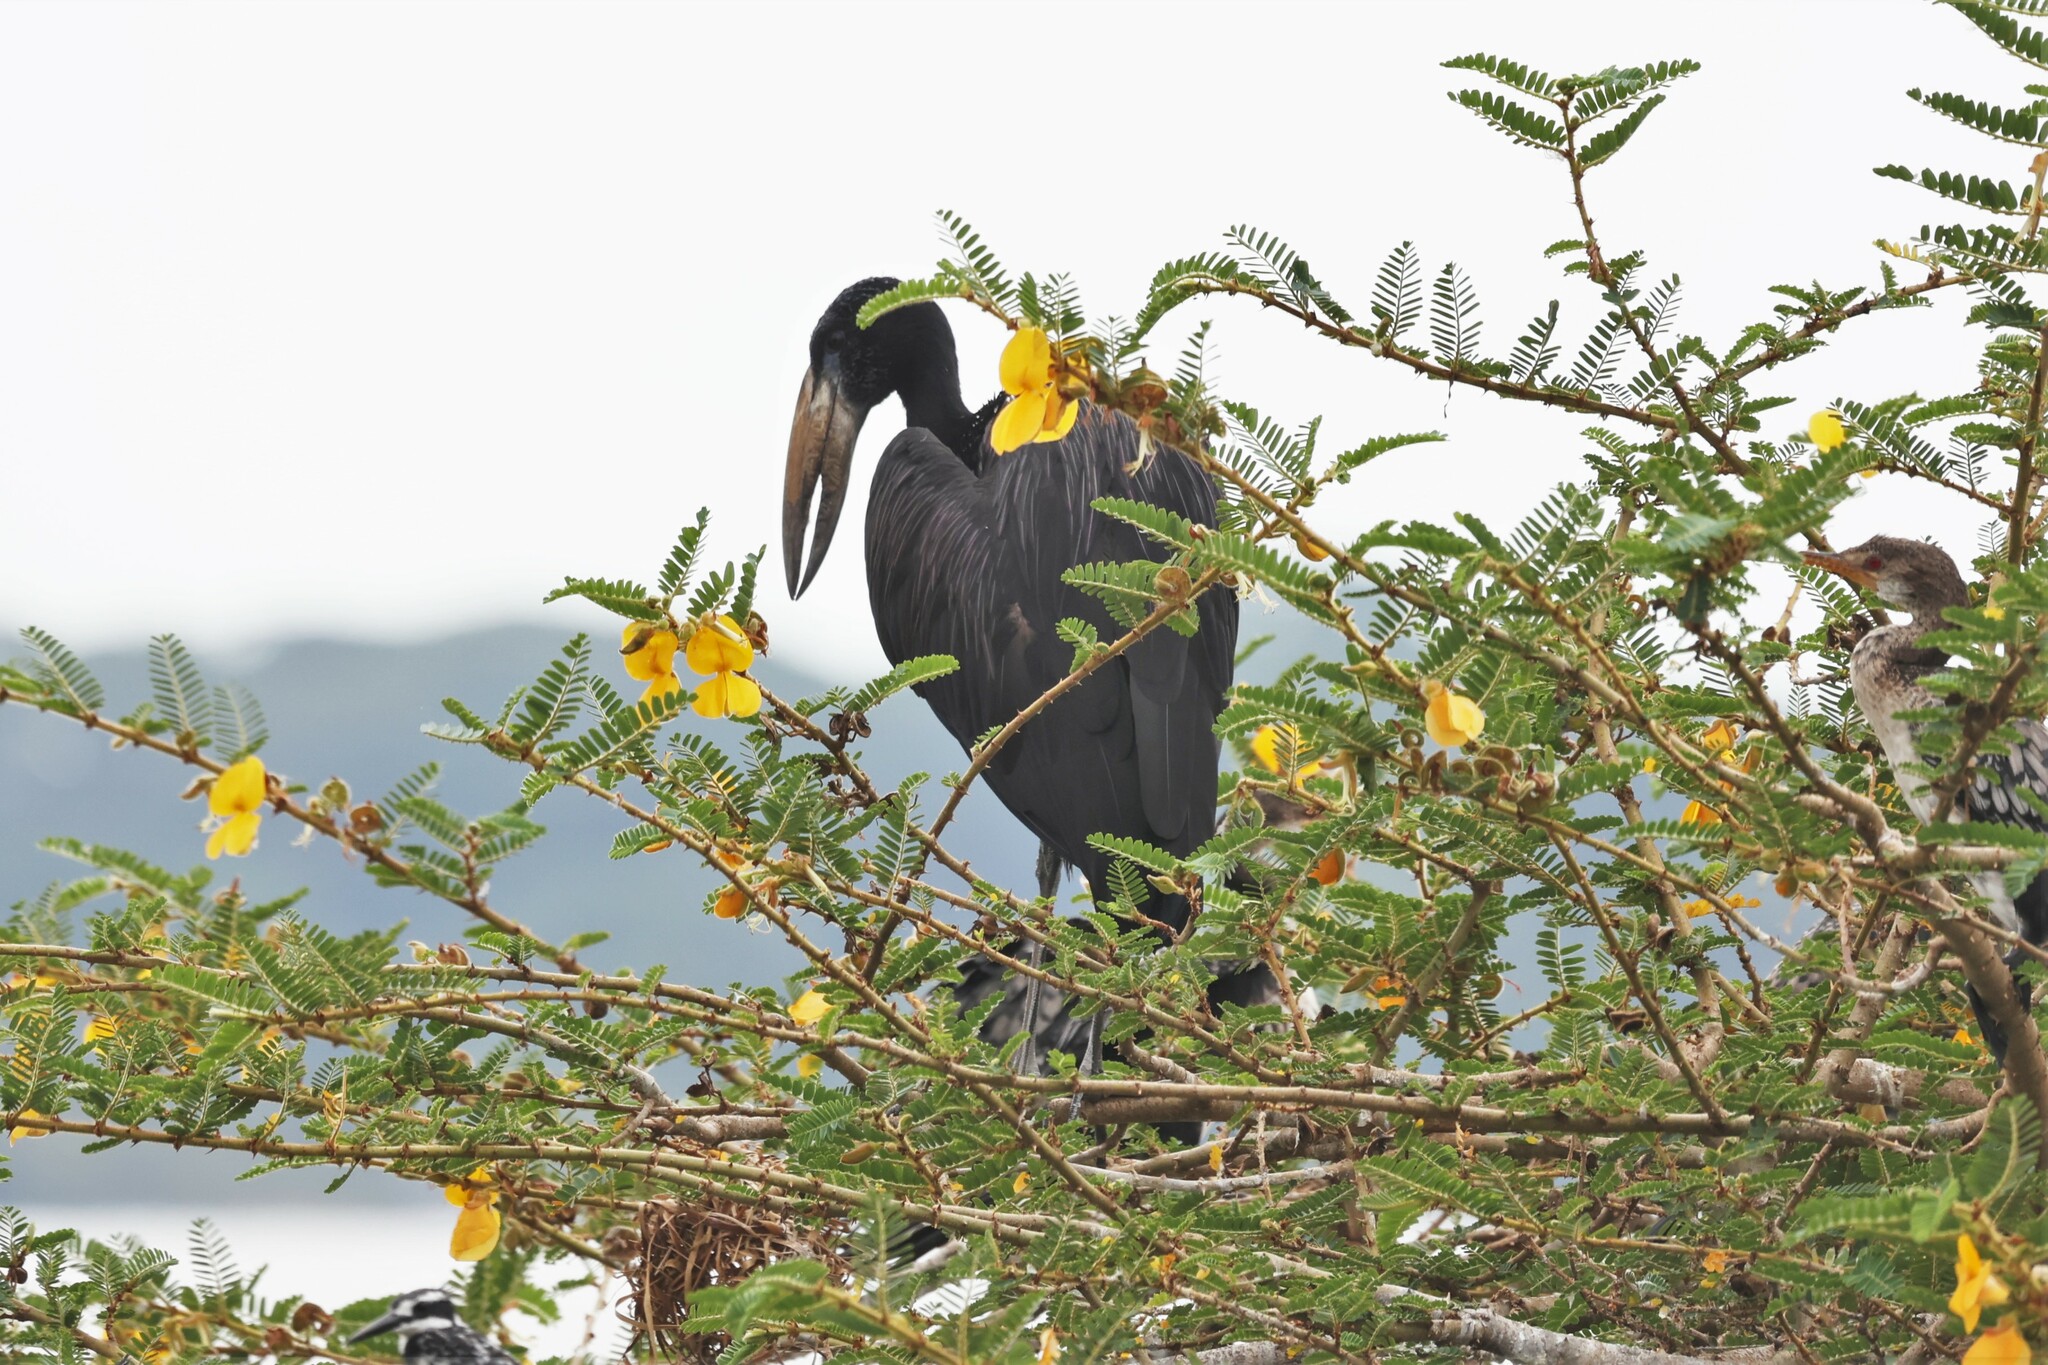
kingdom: Animalia
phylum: Chordata
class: Aves
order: Ciconiiformes
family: Ciconiidae
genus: Anastomus
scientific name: Anastomus lamelligerus
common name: African openbill
